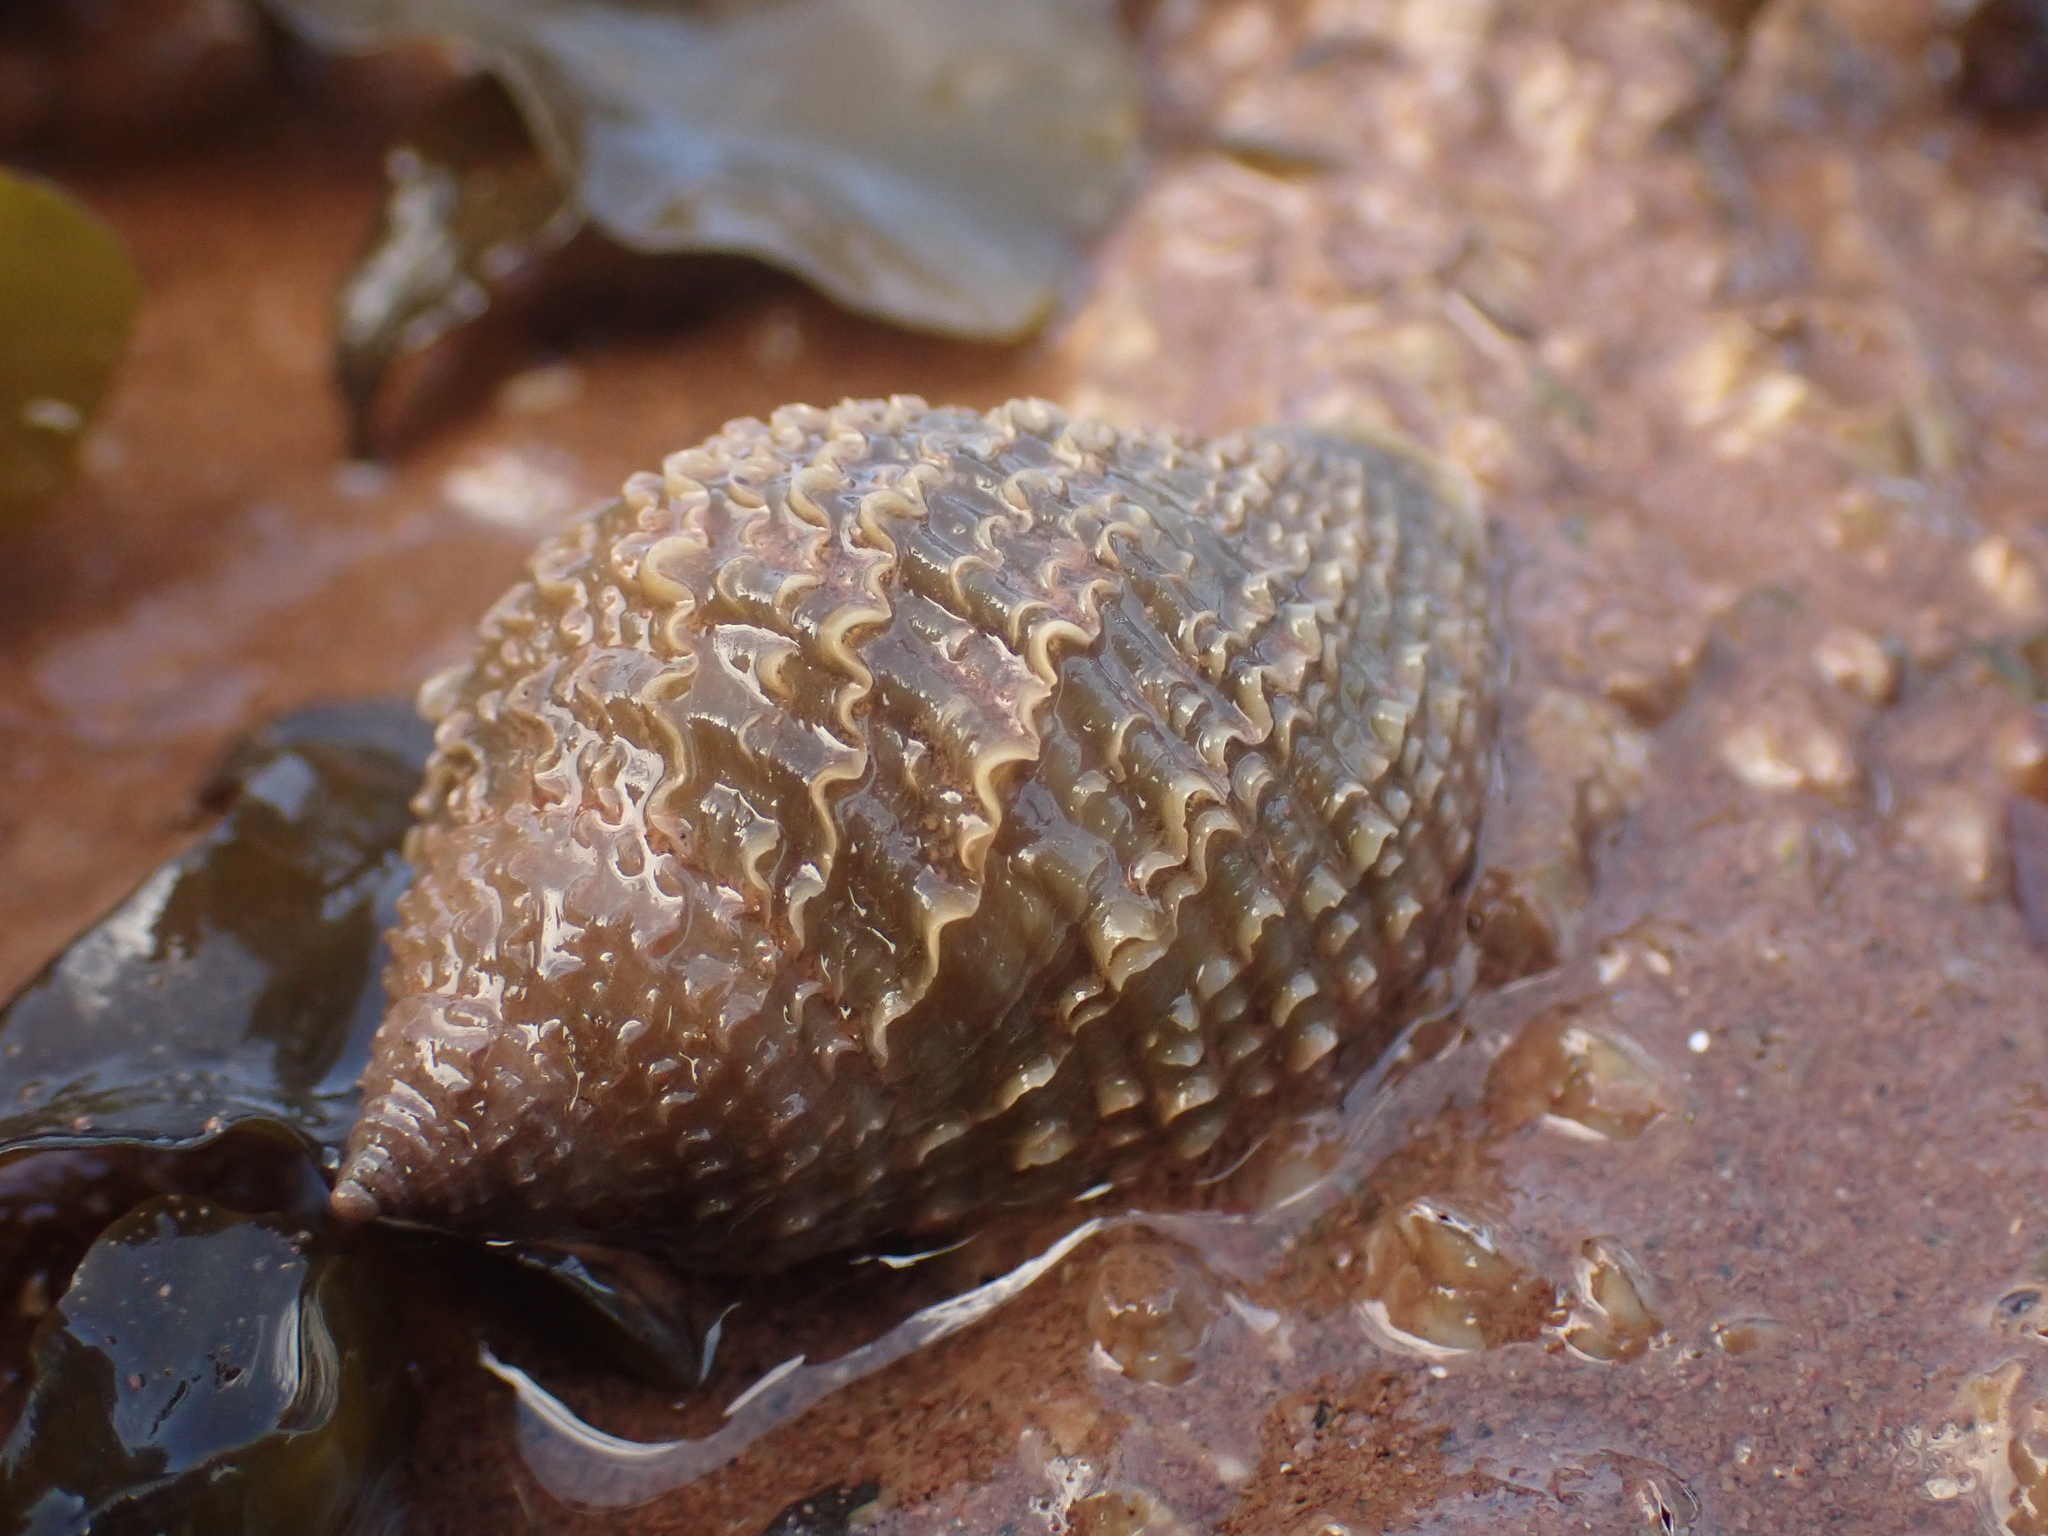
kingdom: Animalia
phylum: Mollusca
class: Gastropoda
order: Neogastropoda
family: Muricidae
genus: Nucella
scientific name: Nucella lapillus
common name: Dog whelk
